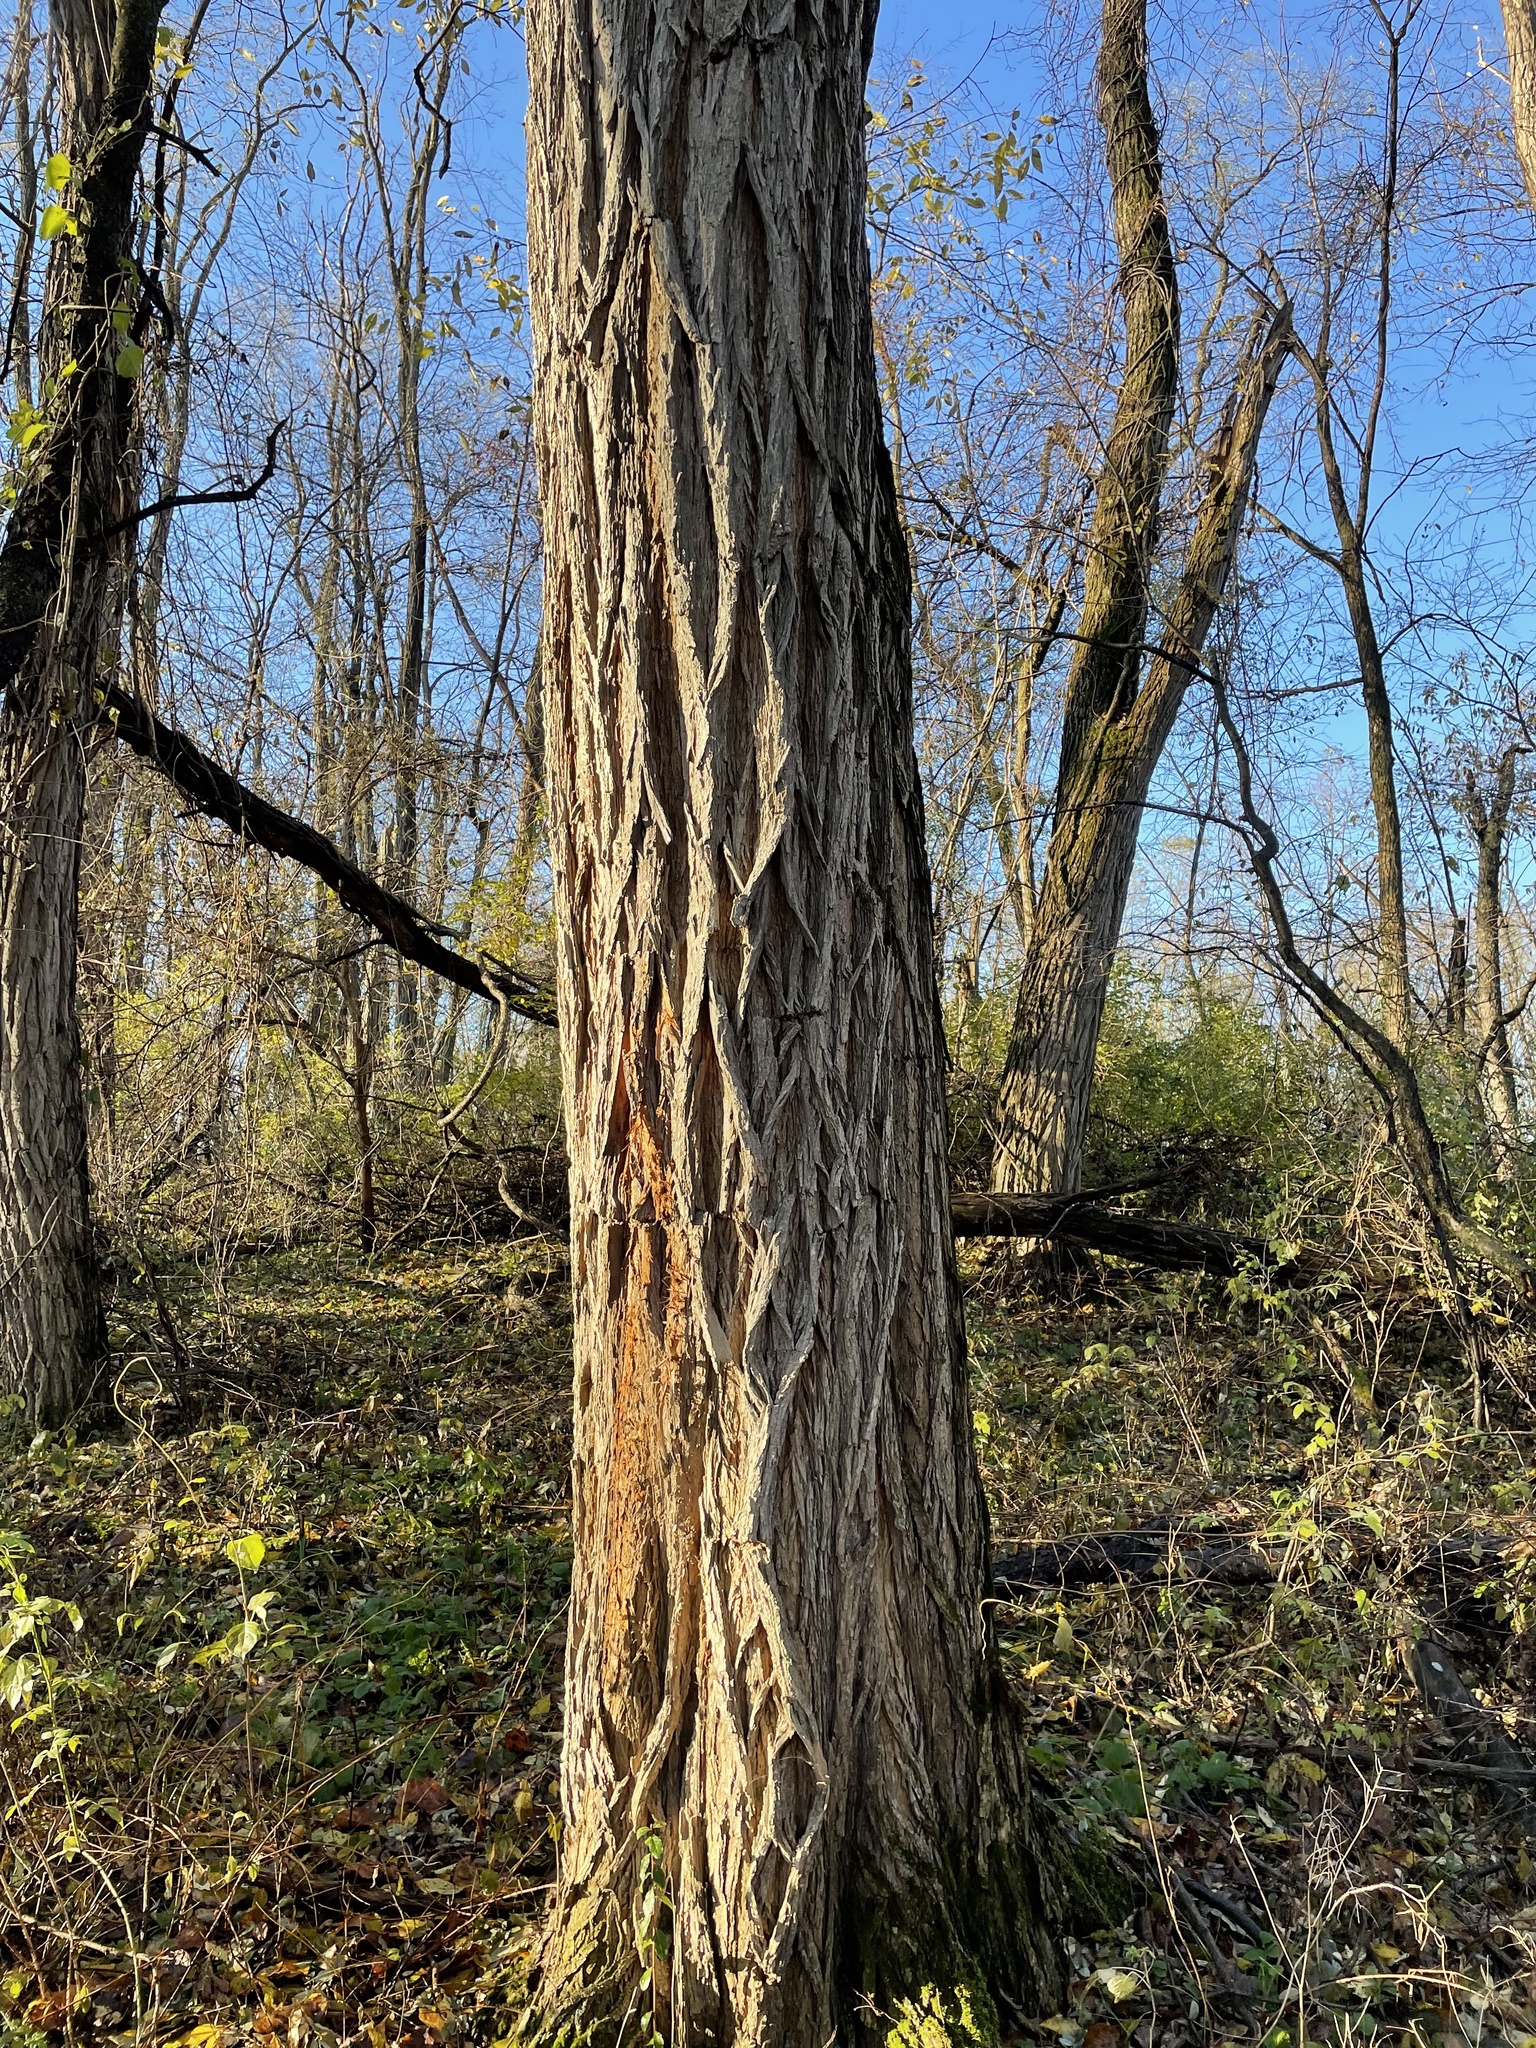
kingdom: Plantae
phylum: Tracheophyta
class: Magnoliopsida
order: Fabales
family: Fabaceae
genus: Robinia
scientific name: Robinia pseudoacacia
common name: Black locust
